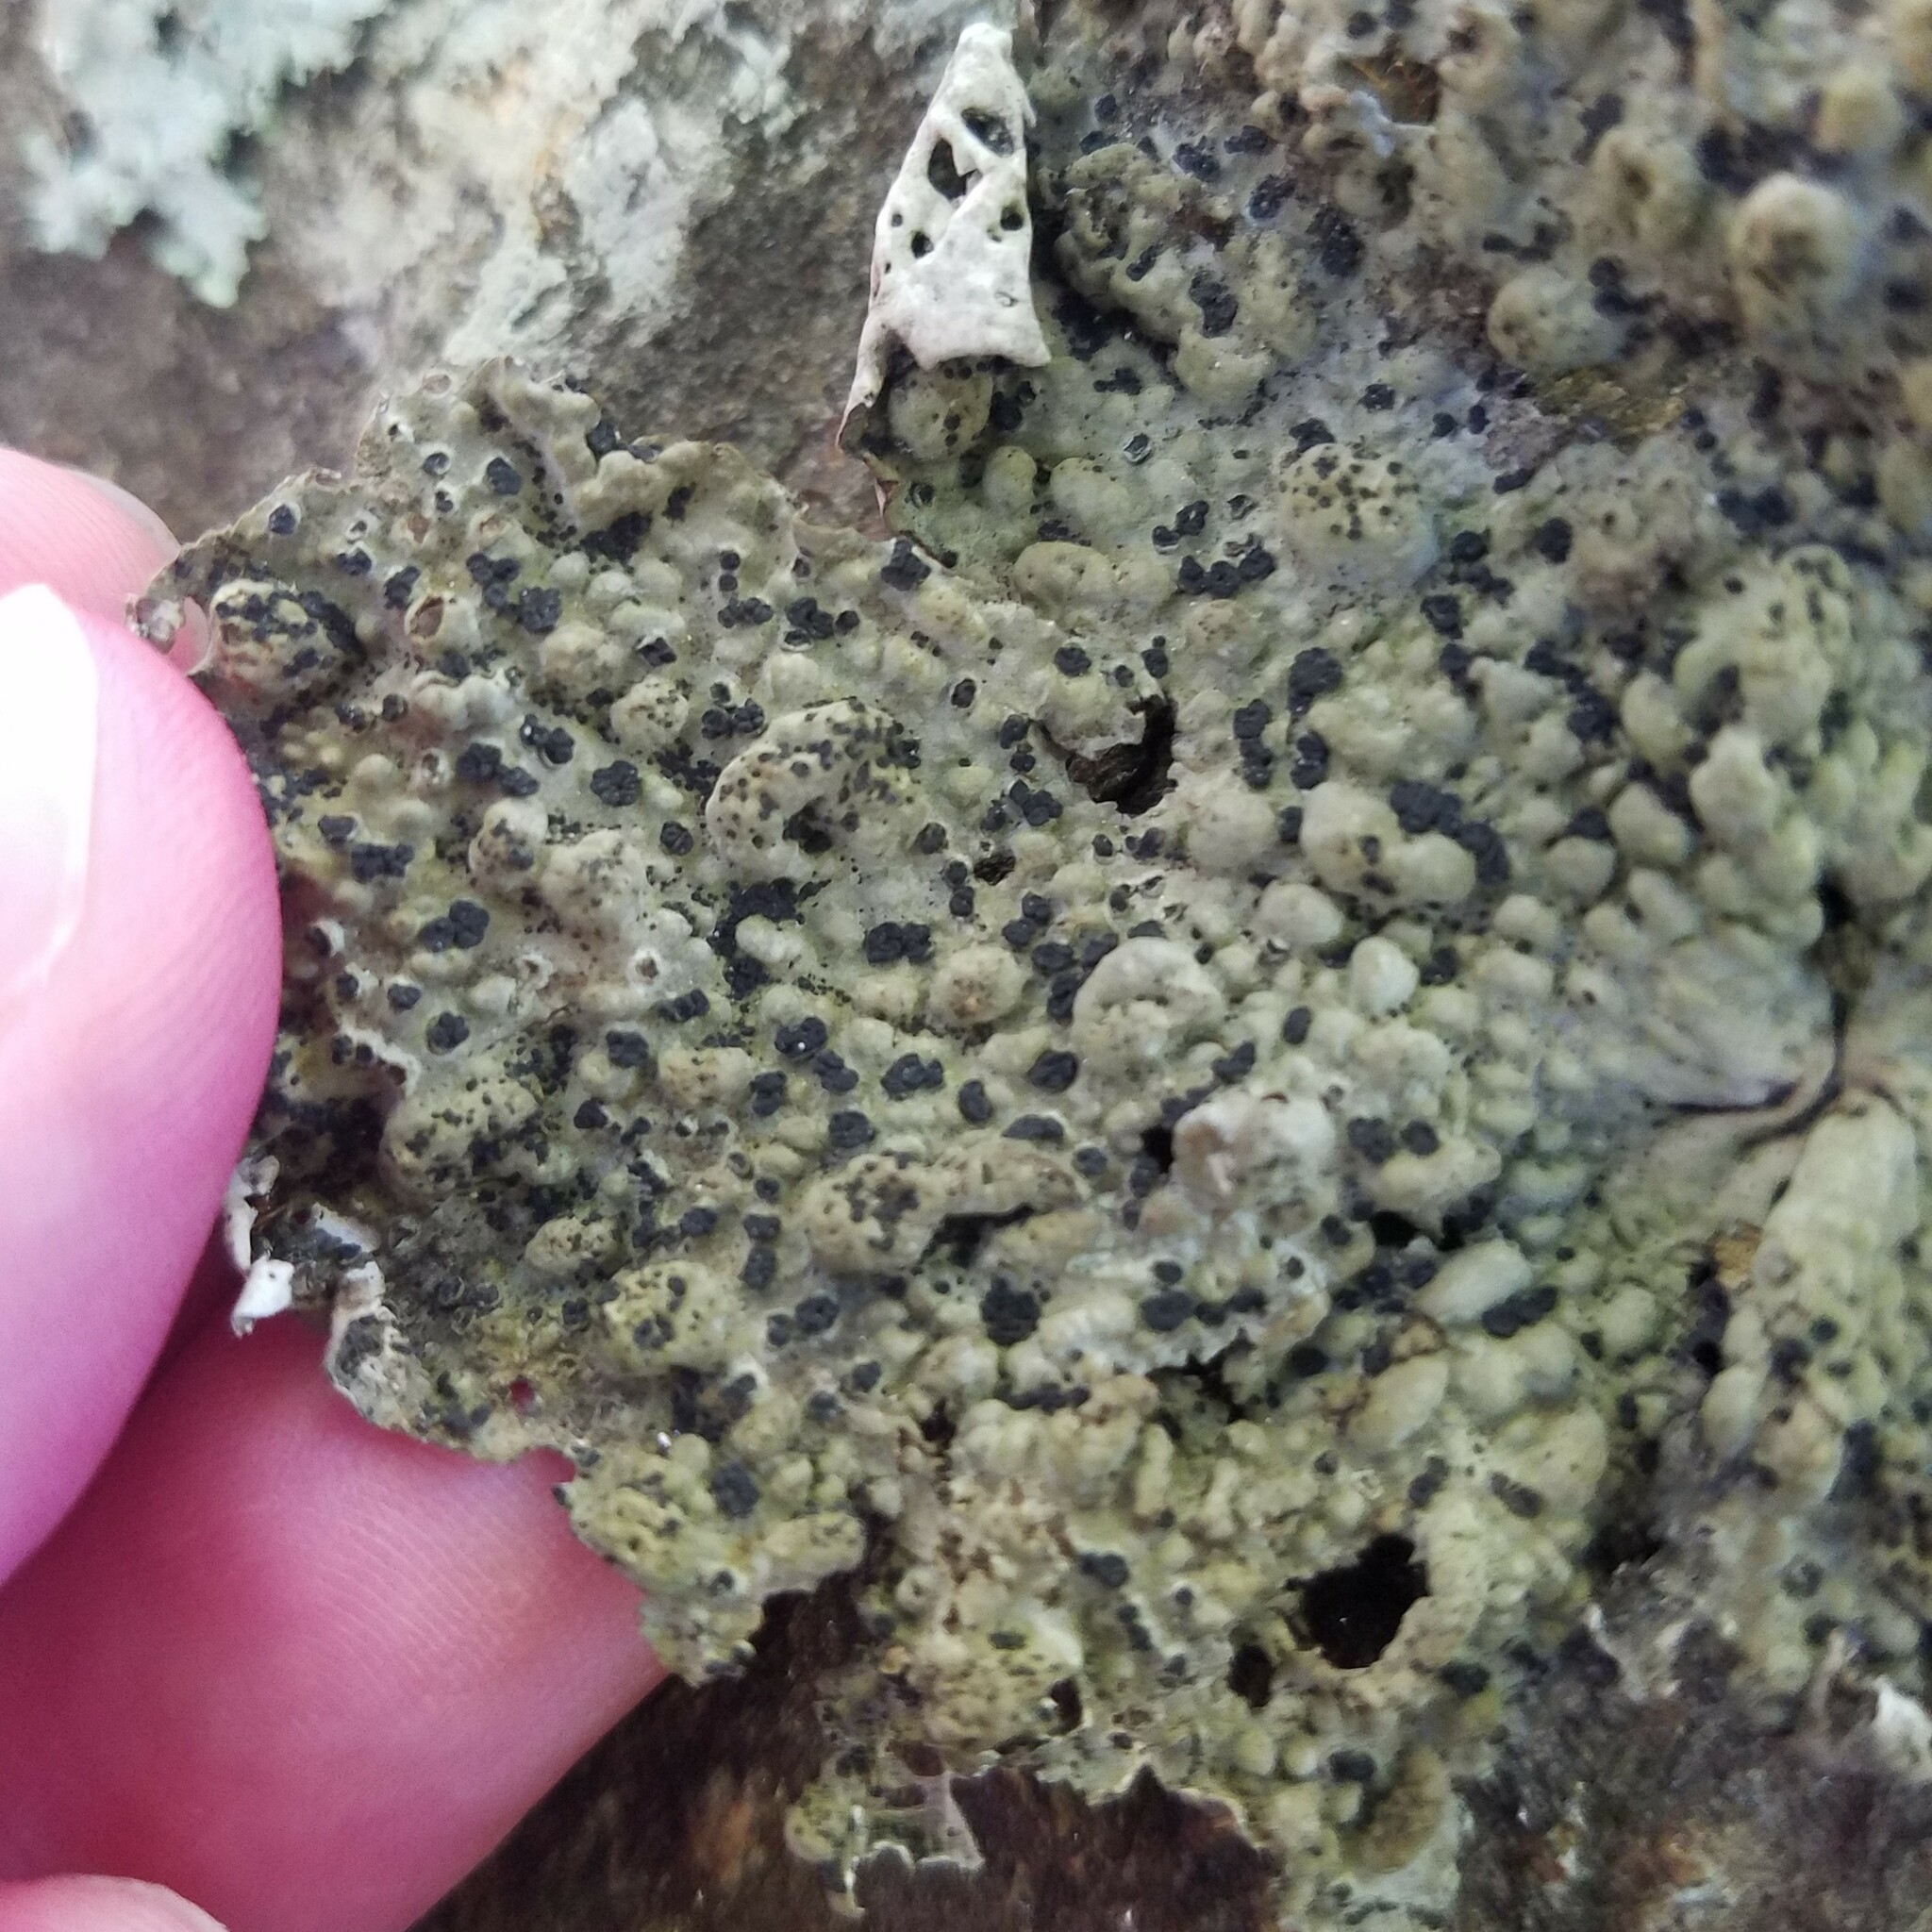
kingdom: Fungi
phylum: Ascomycota
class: Lecanoromycetes
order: Umbilicariales
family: Umbilicariaceae
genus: Lasallia
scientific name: Lasallia papulosa
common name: Common toadskin lichen
